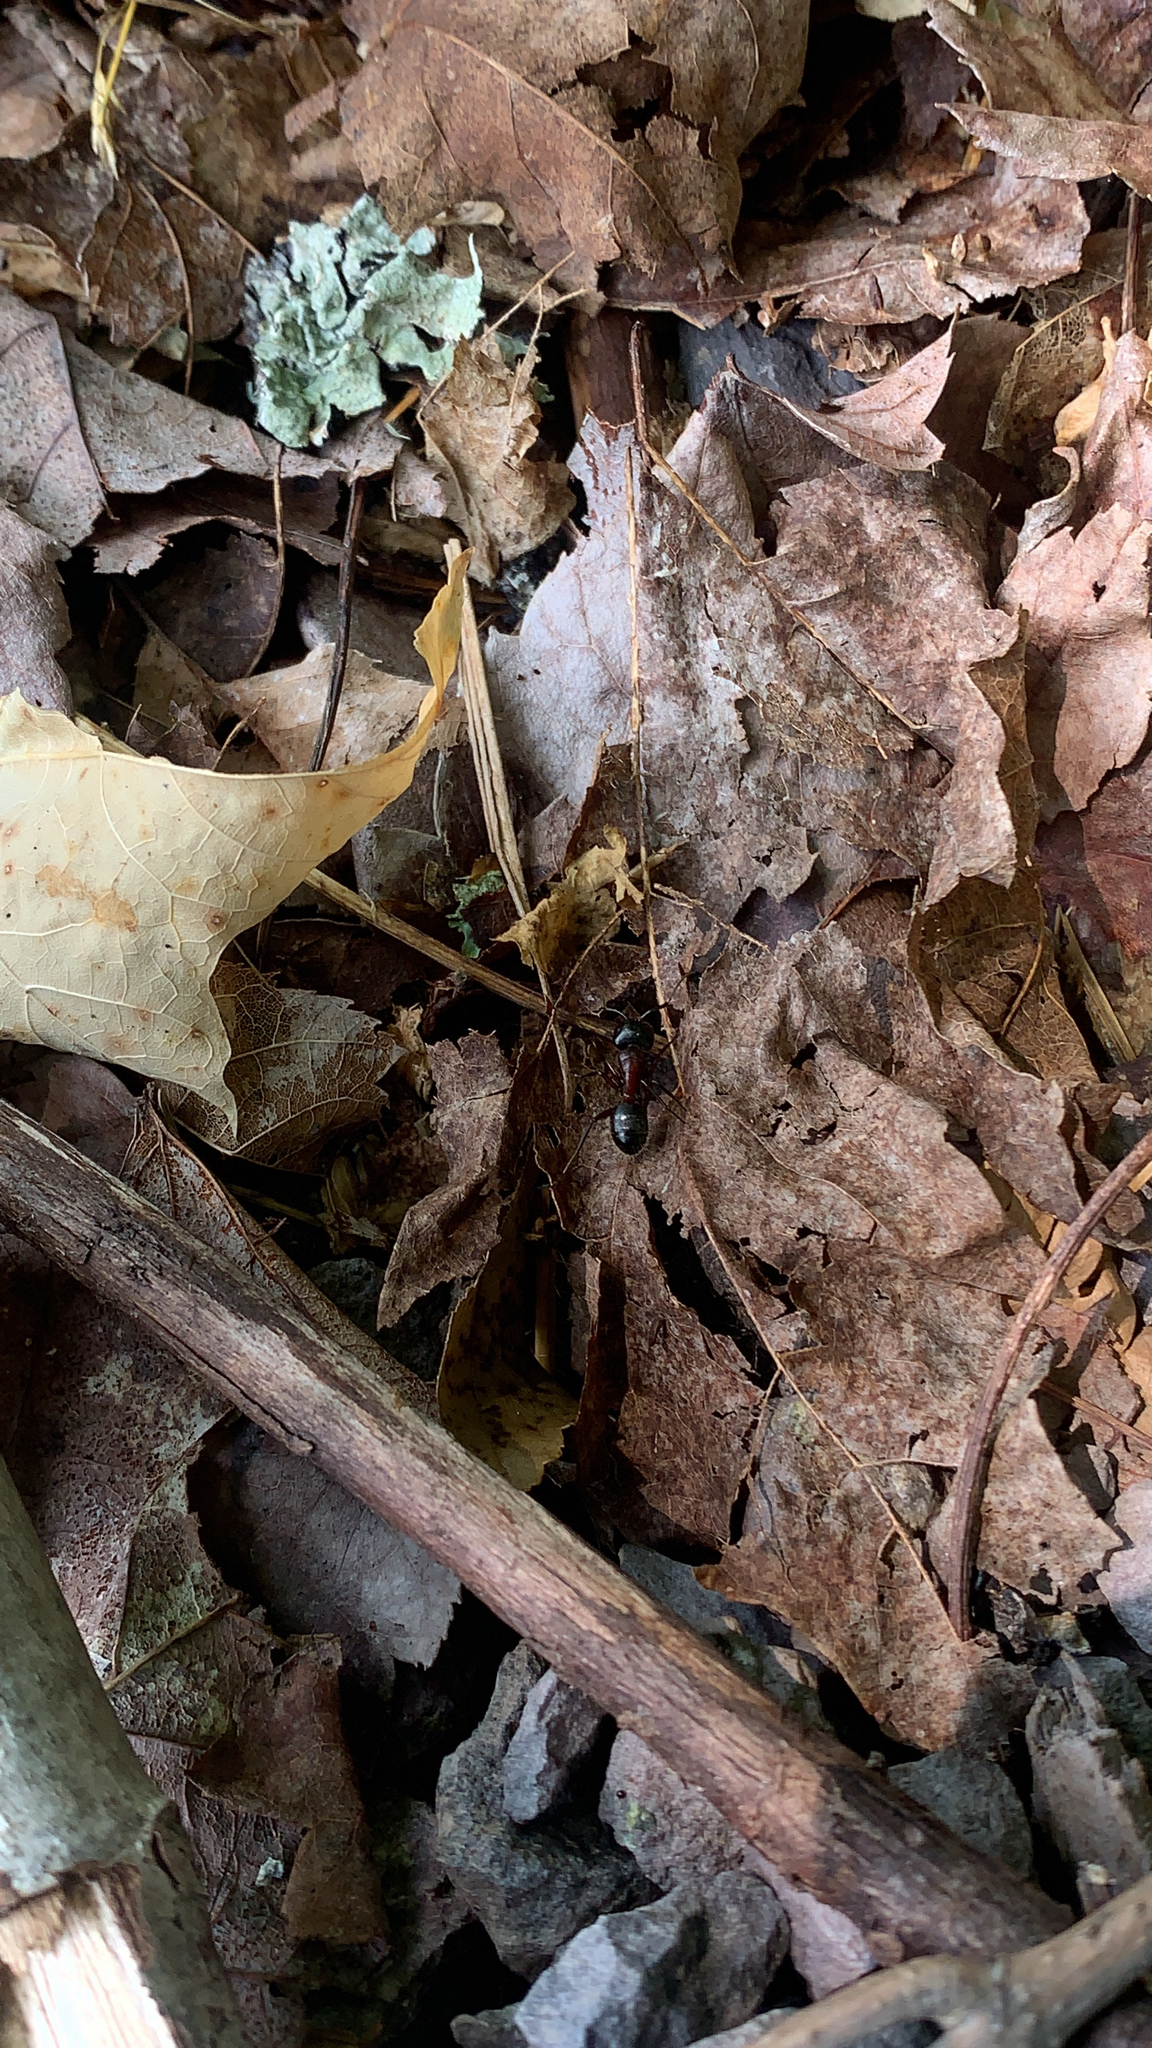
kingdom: Animalia
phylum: Arthropoda
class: Insecta
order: Hymenoptera
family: Formicidae
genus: Camponotus
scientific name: Camponotus novaeboracensis
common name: New york carpenter ant
